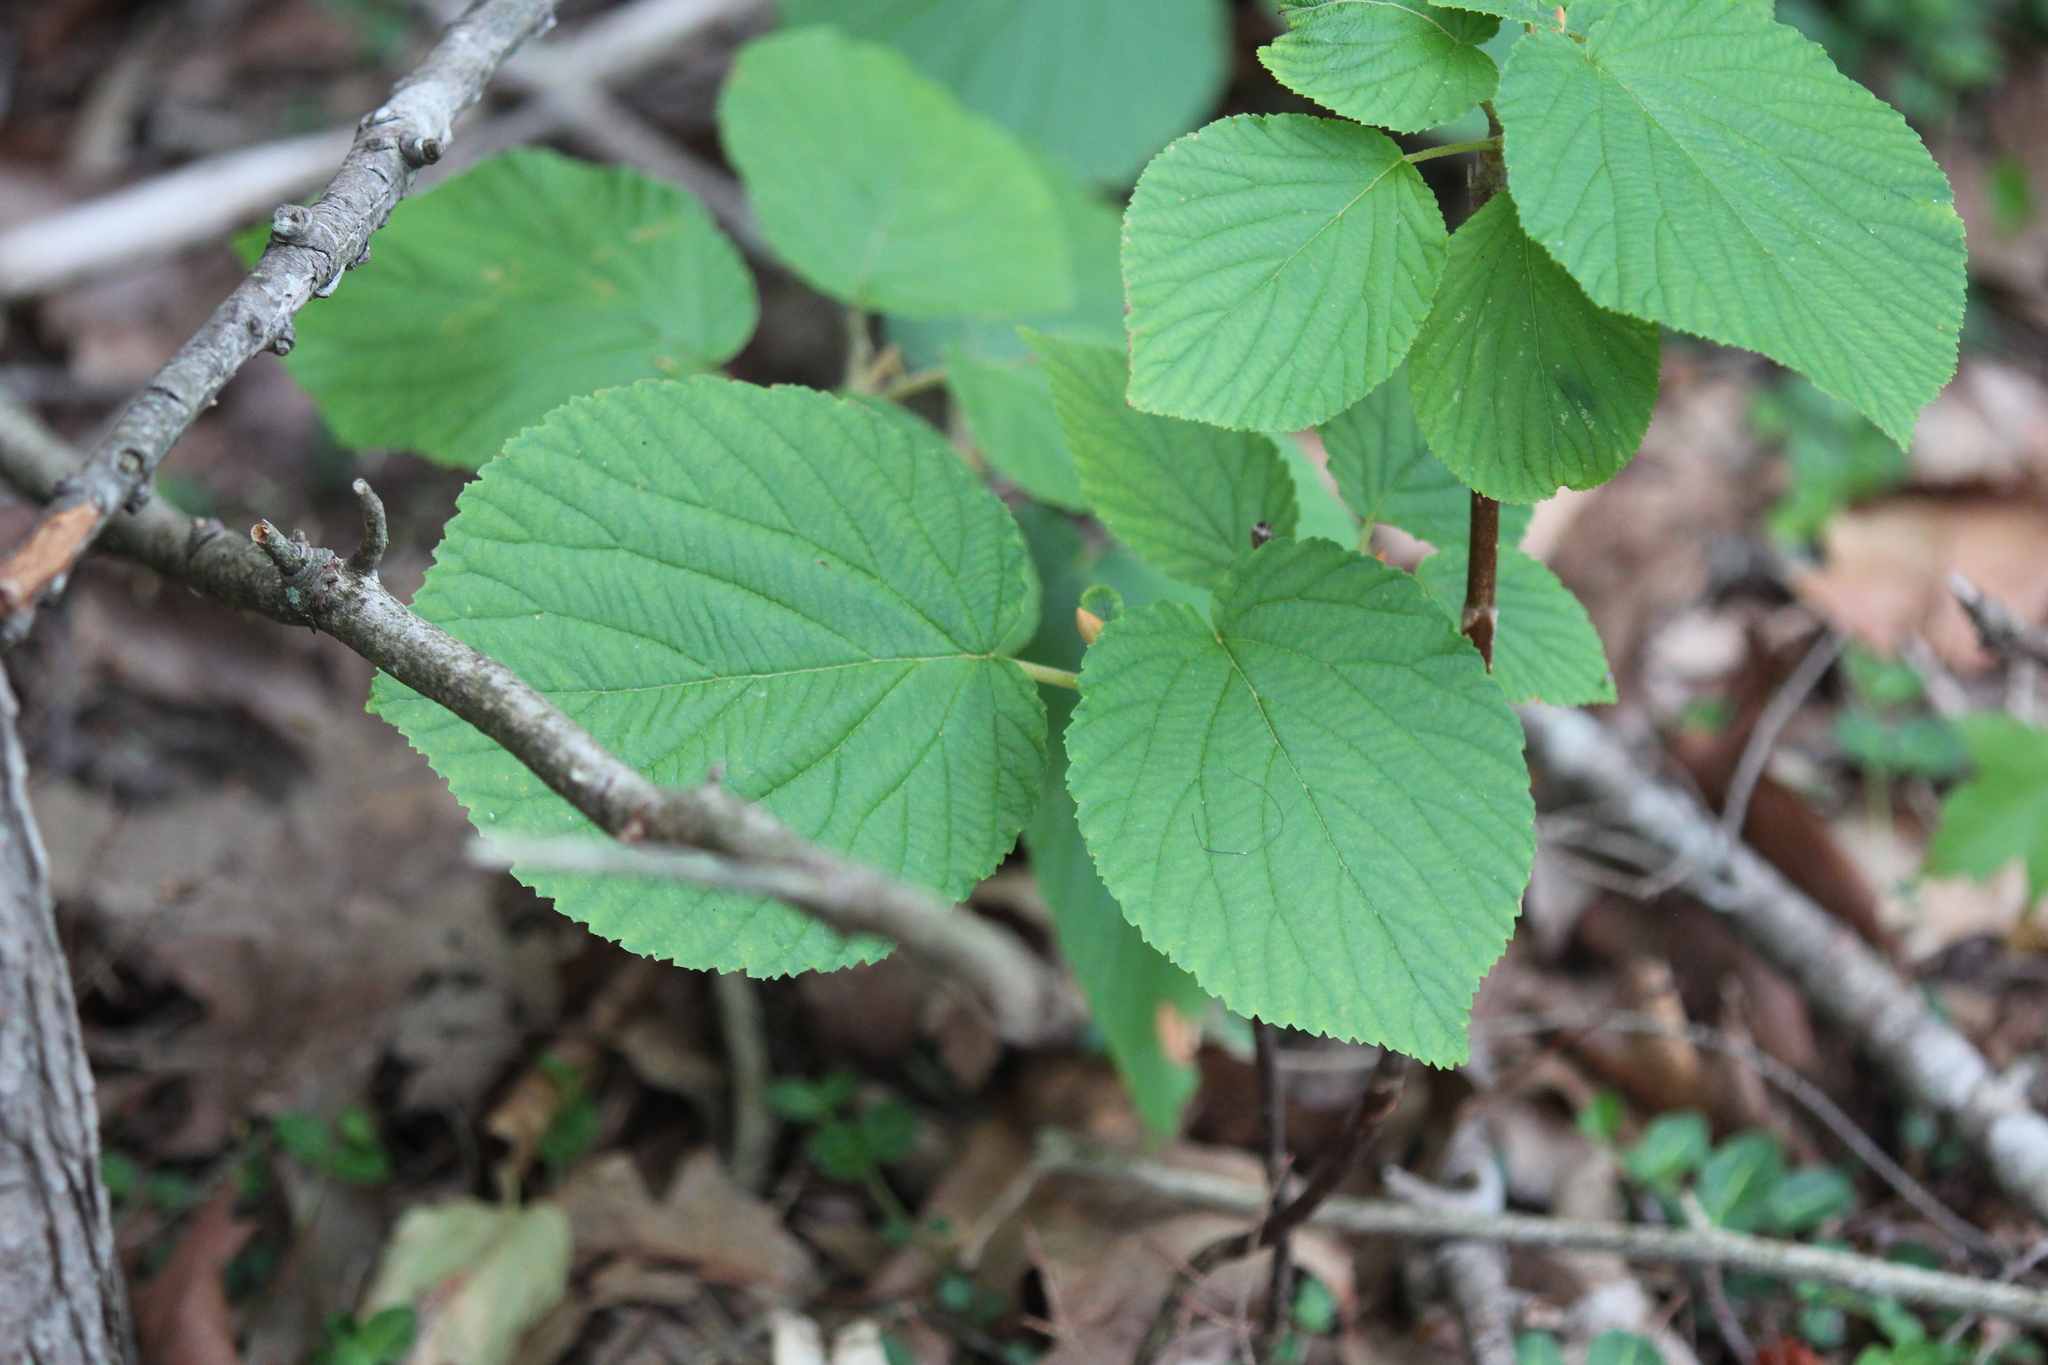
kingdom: Plantae
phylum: Tracheophyta
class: Magnoliopsida
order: Dipsacales
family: Viburnaceae
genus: Viburnum
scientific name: Viburnum lantanoides
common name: Hobblebush
